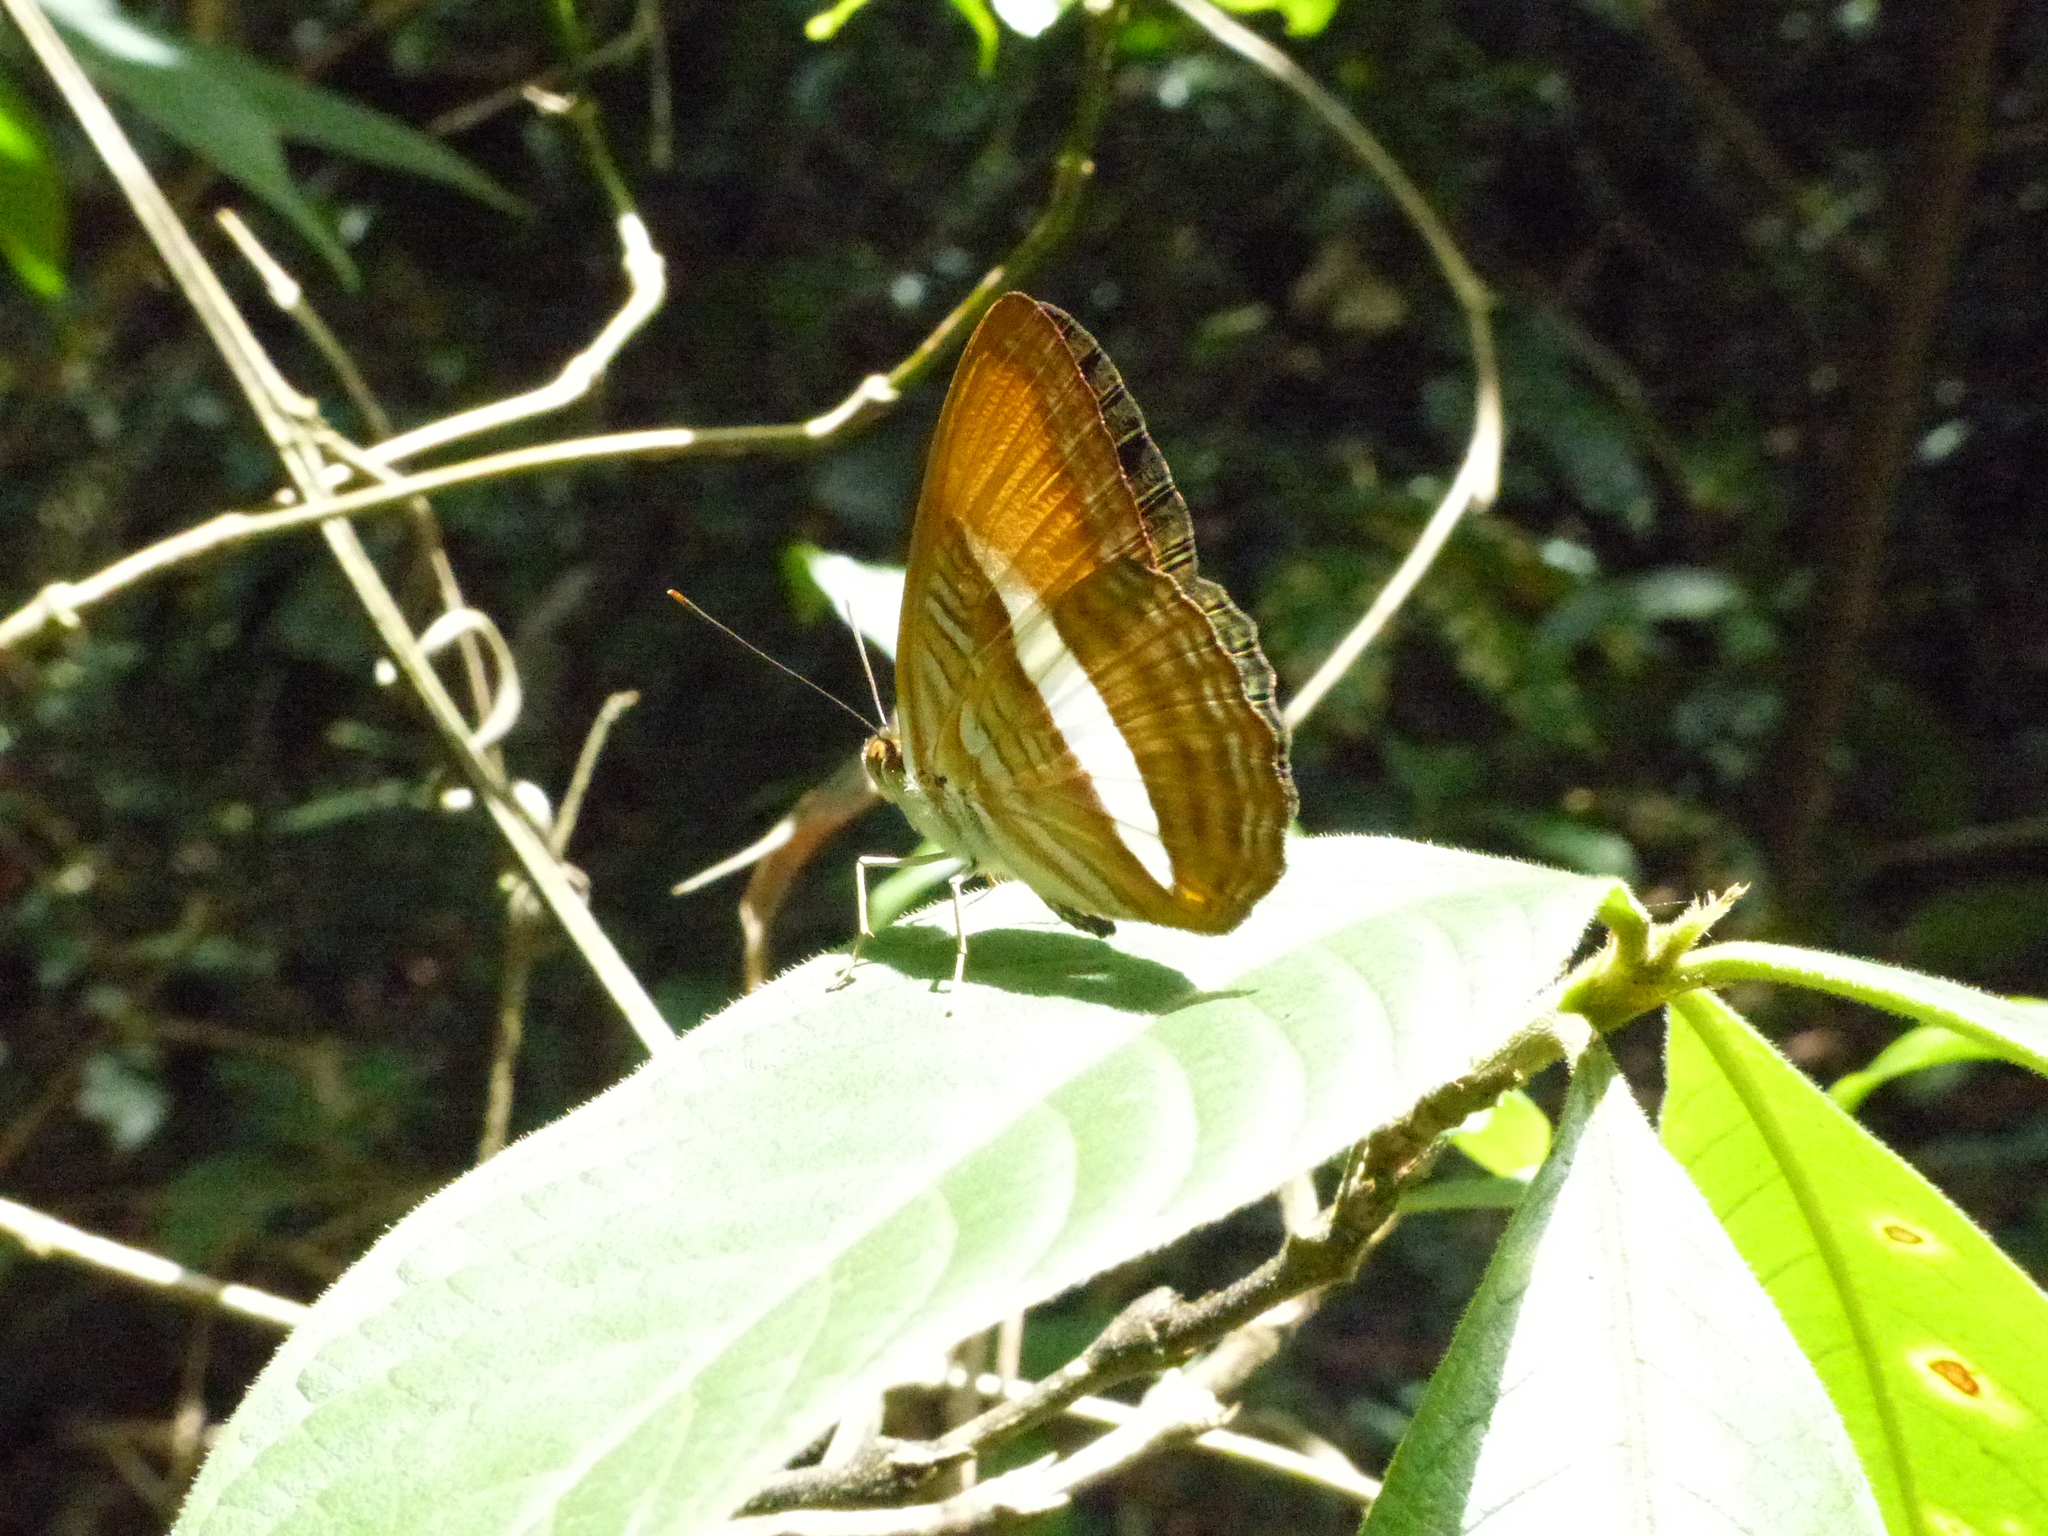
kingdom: Animalia
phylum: Arthropoda
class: Insecta
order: Lepidoptera
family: Nymphalidae
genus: Limenitis
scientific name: Limenitis cytherea
